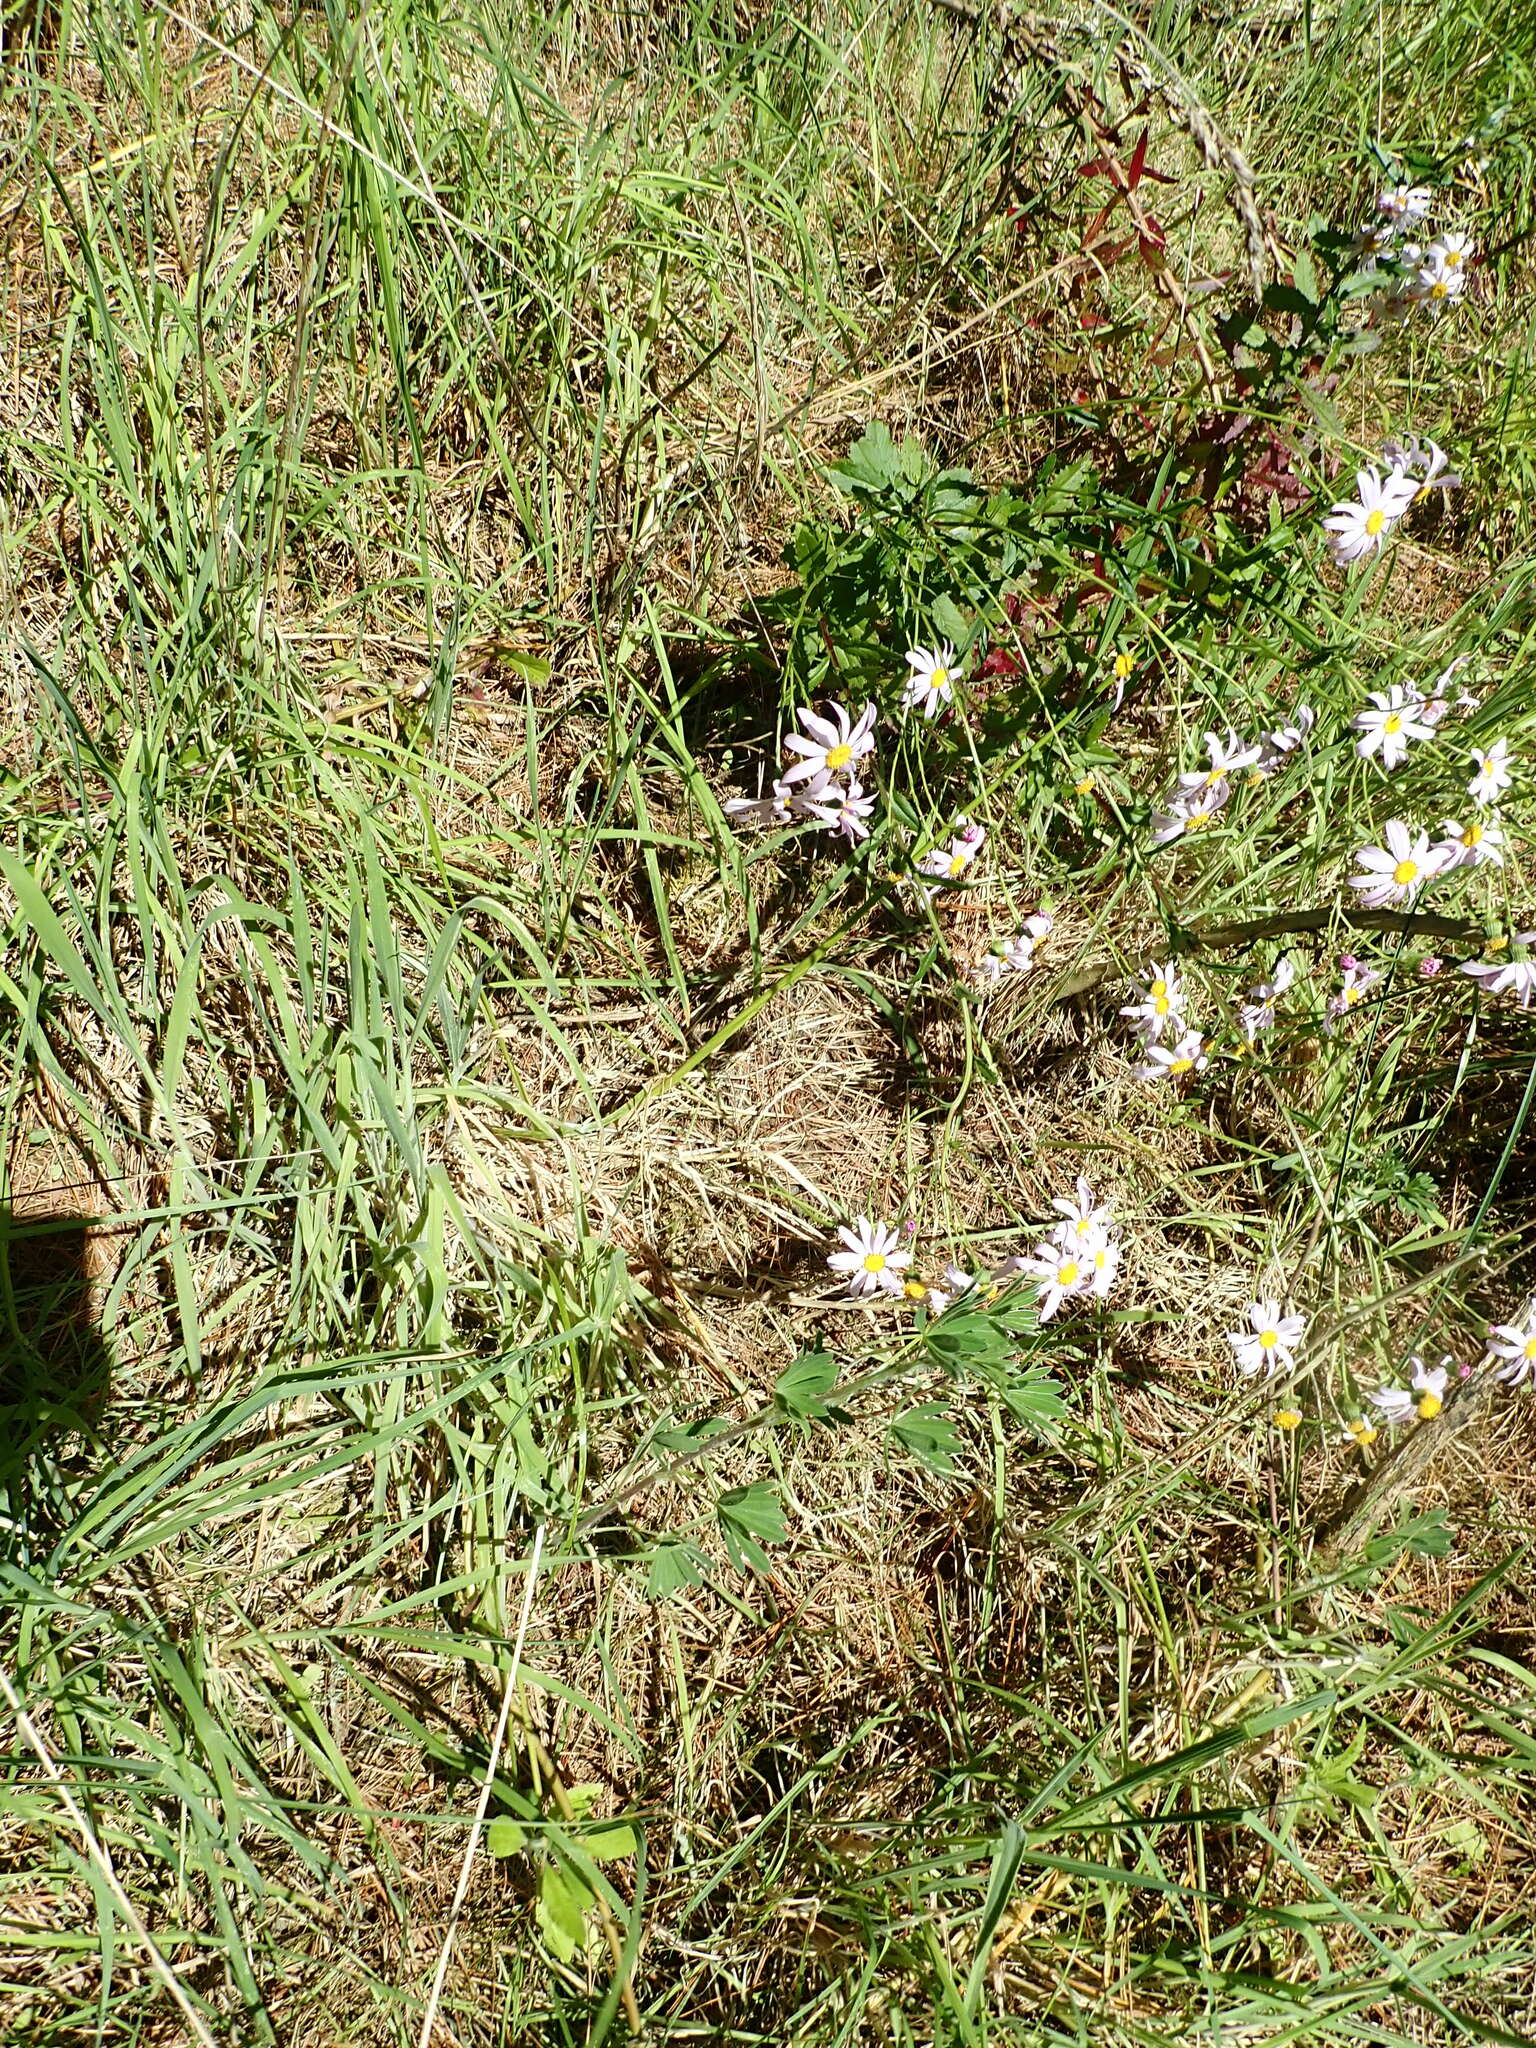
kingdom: Plantae
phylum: Tracheophyta
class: Magnoliopsida
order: Asterales
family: Asteraceae
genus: Senecio
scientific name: Senecio glastifolius
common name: Woad-leaved ragwort
